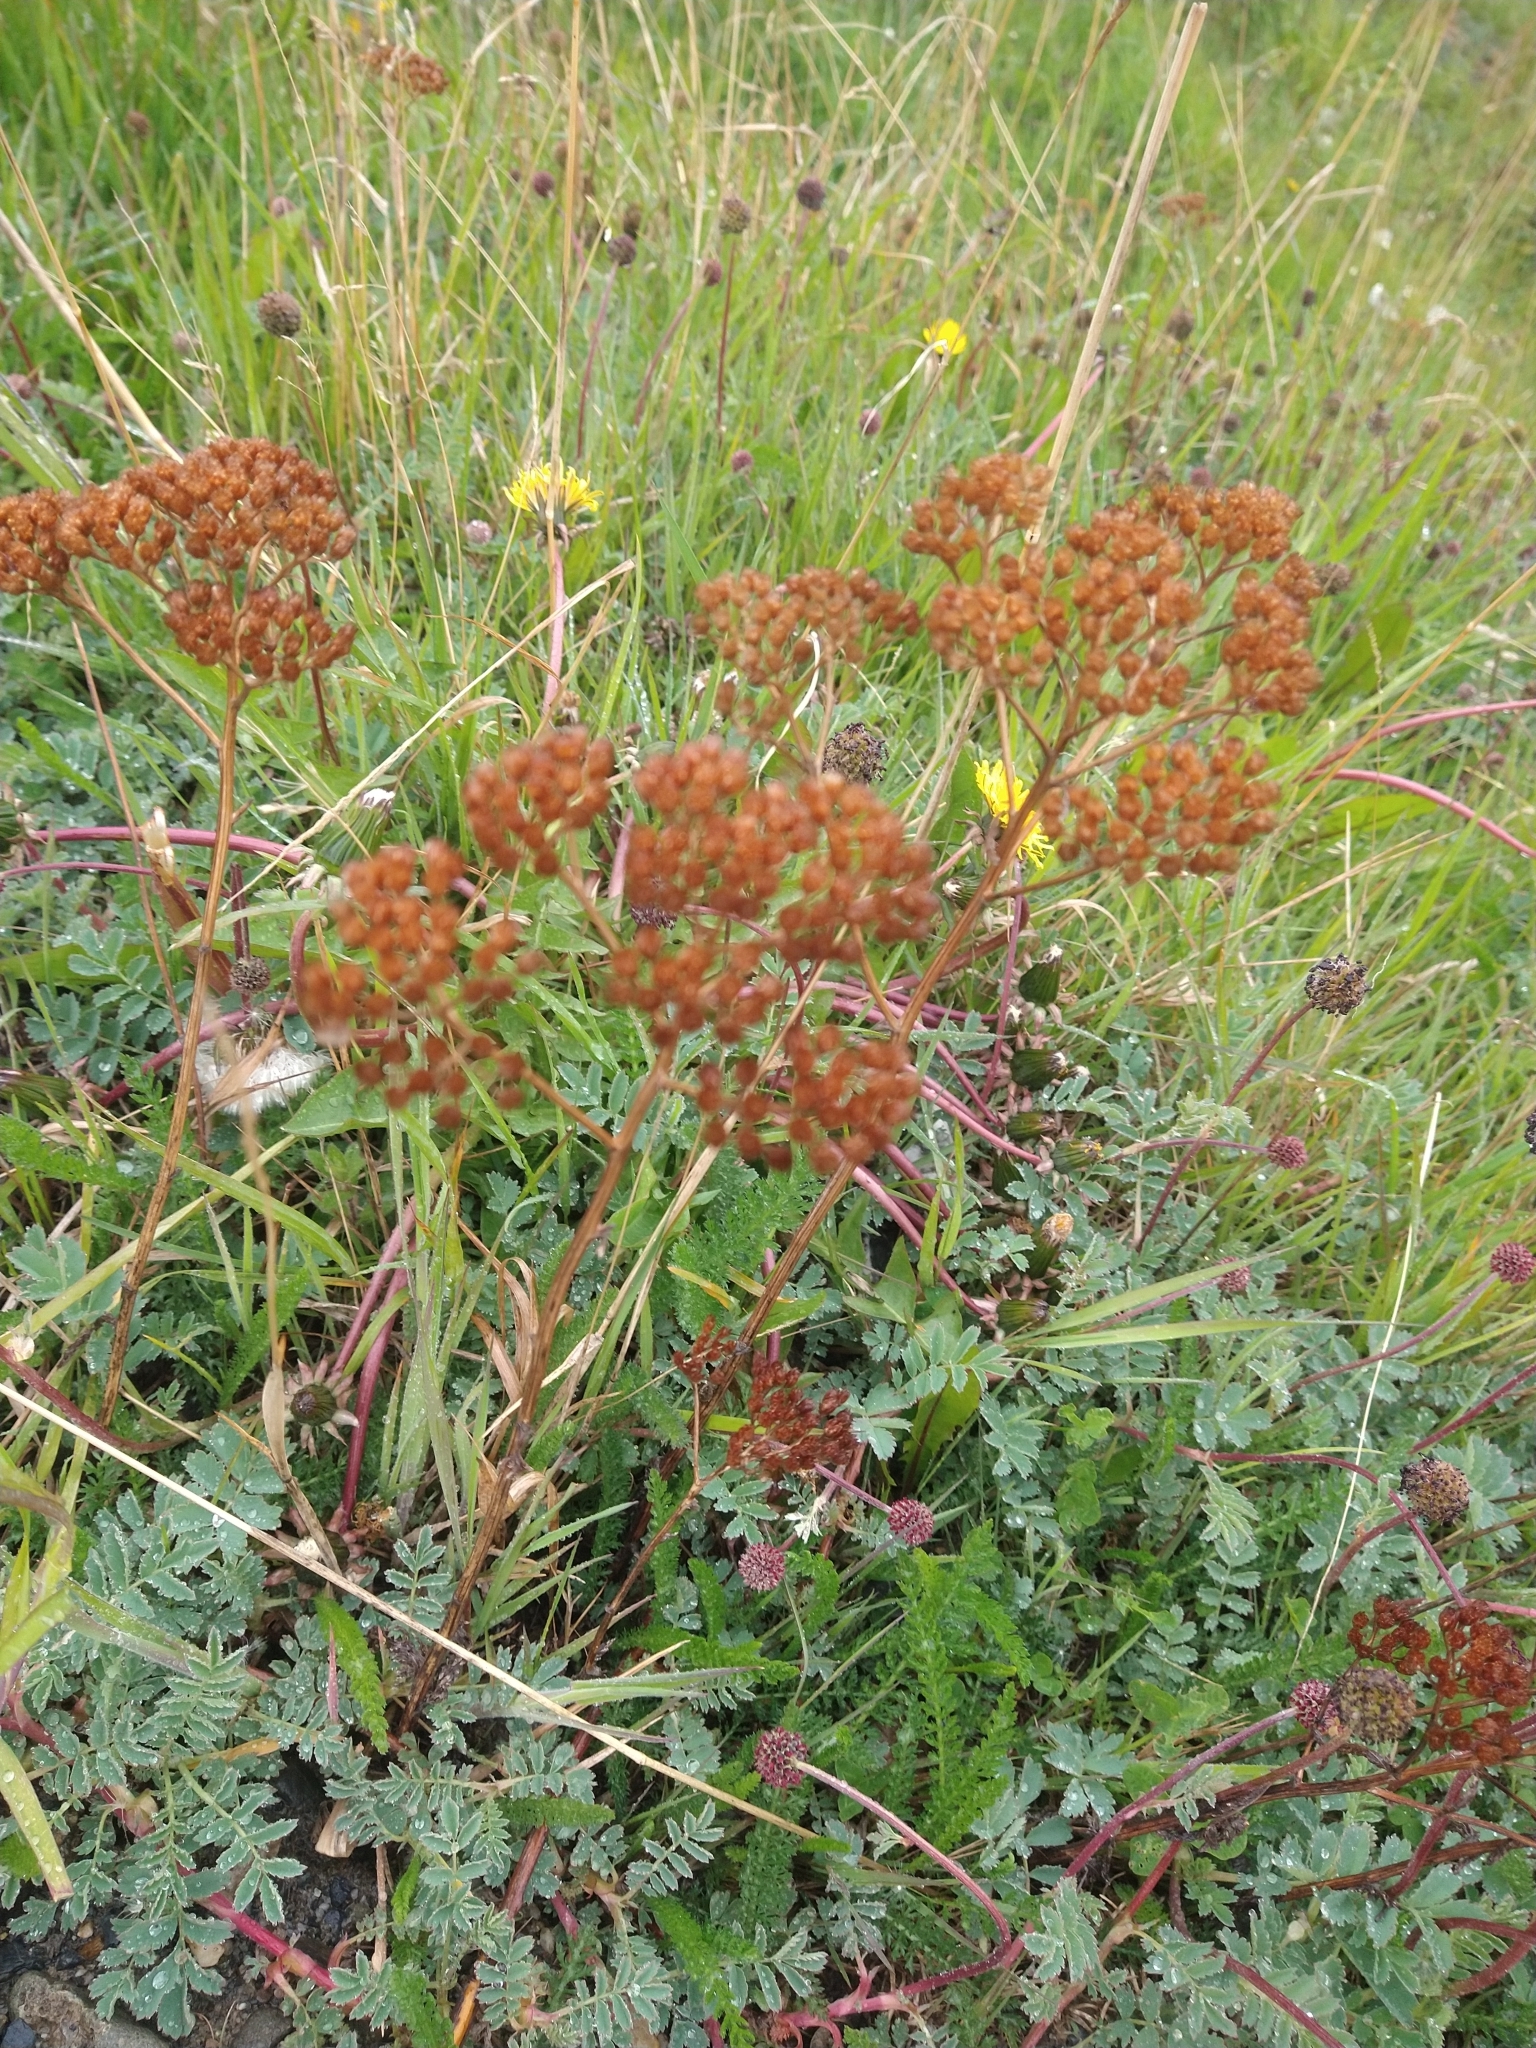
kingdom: Plantae
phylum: Tracheophyta
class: Magnoliopsida
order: Asterales
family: Asteraceae
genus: Achillea
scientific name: Achillea millefolium
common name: Yarrow
